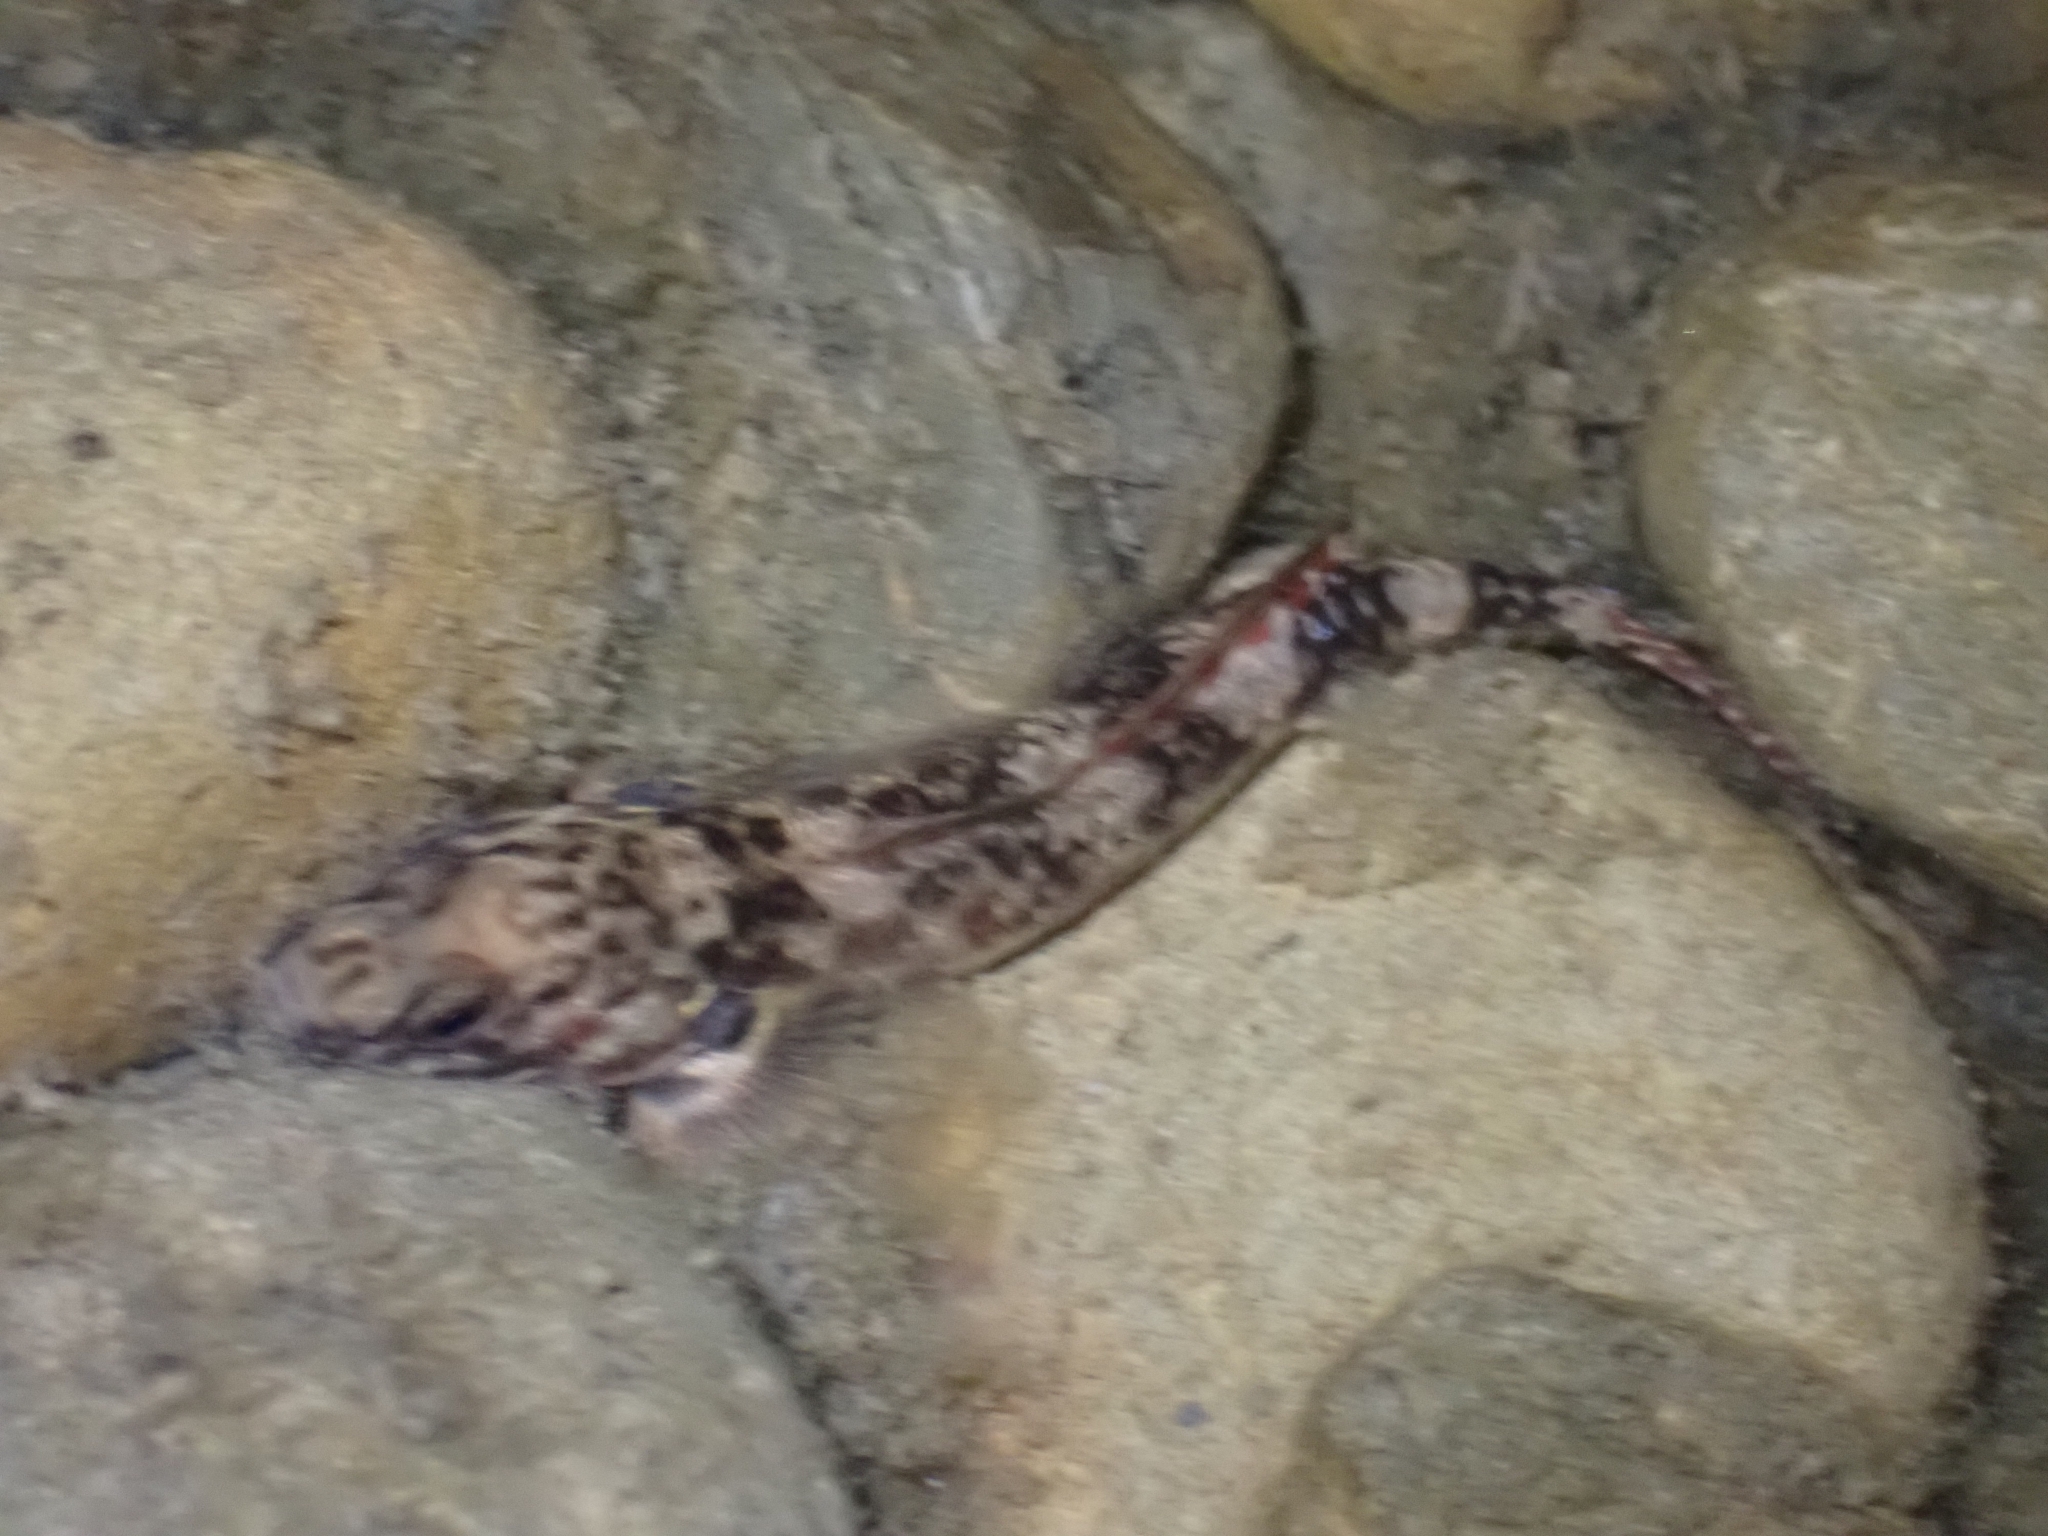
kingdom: Animalia
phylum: Chordata
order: Perciformes
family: Eleotridae
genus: Gobiomorphus
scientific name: Gobiomorphus huttoni
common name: Redfin bully
